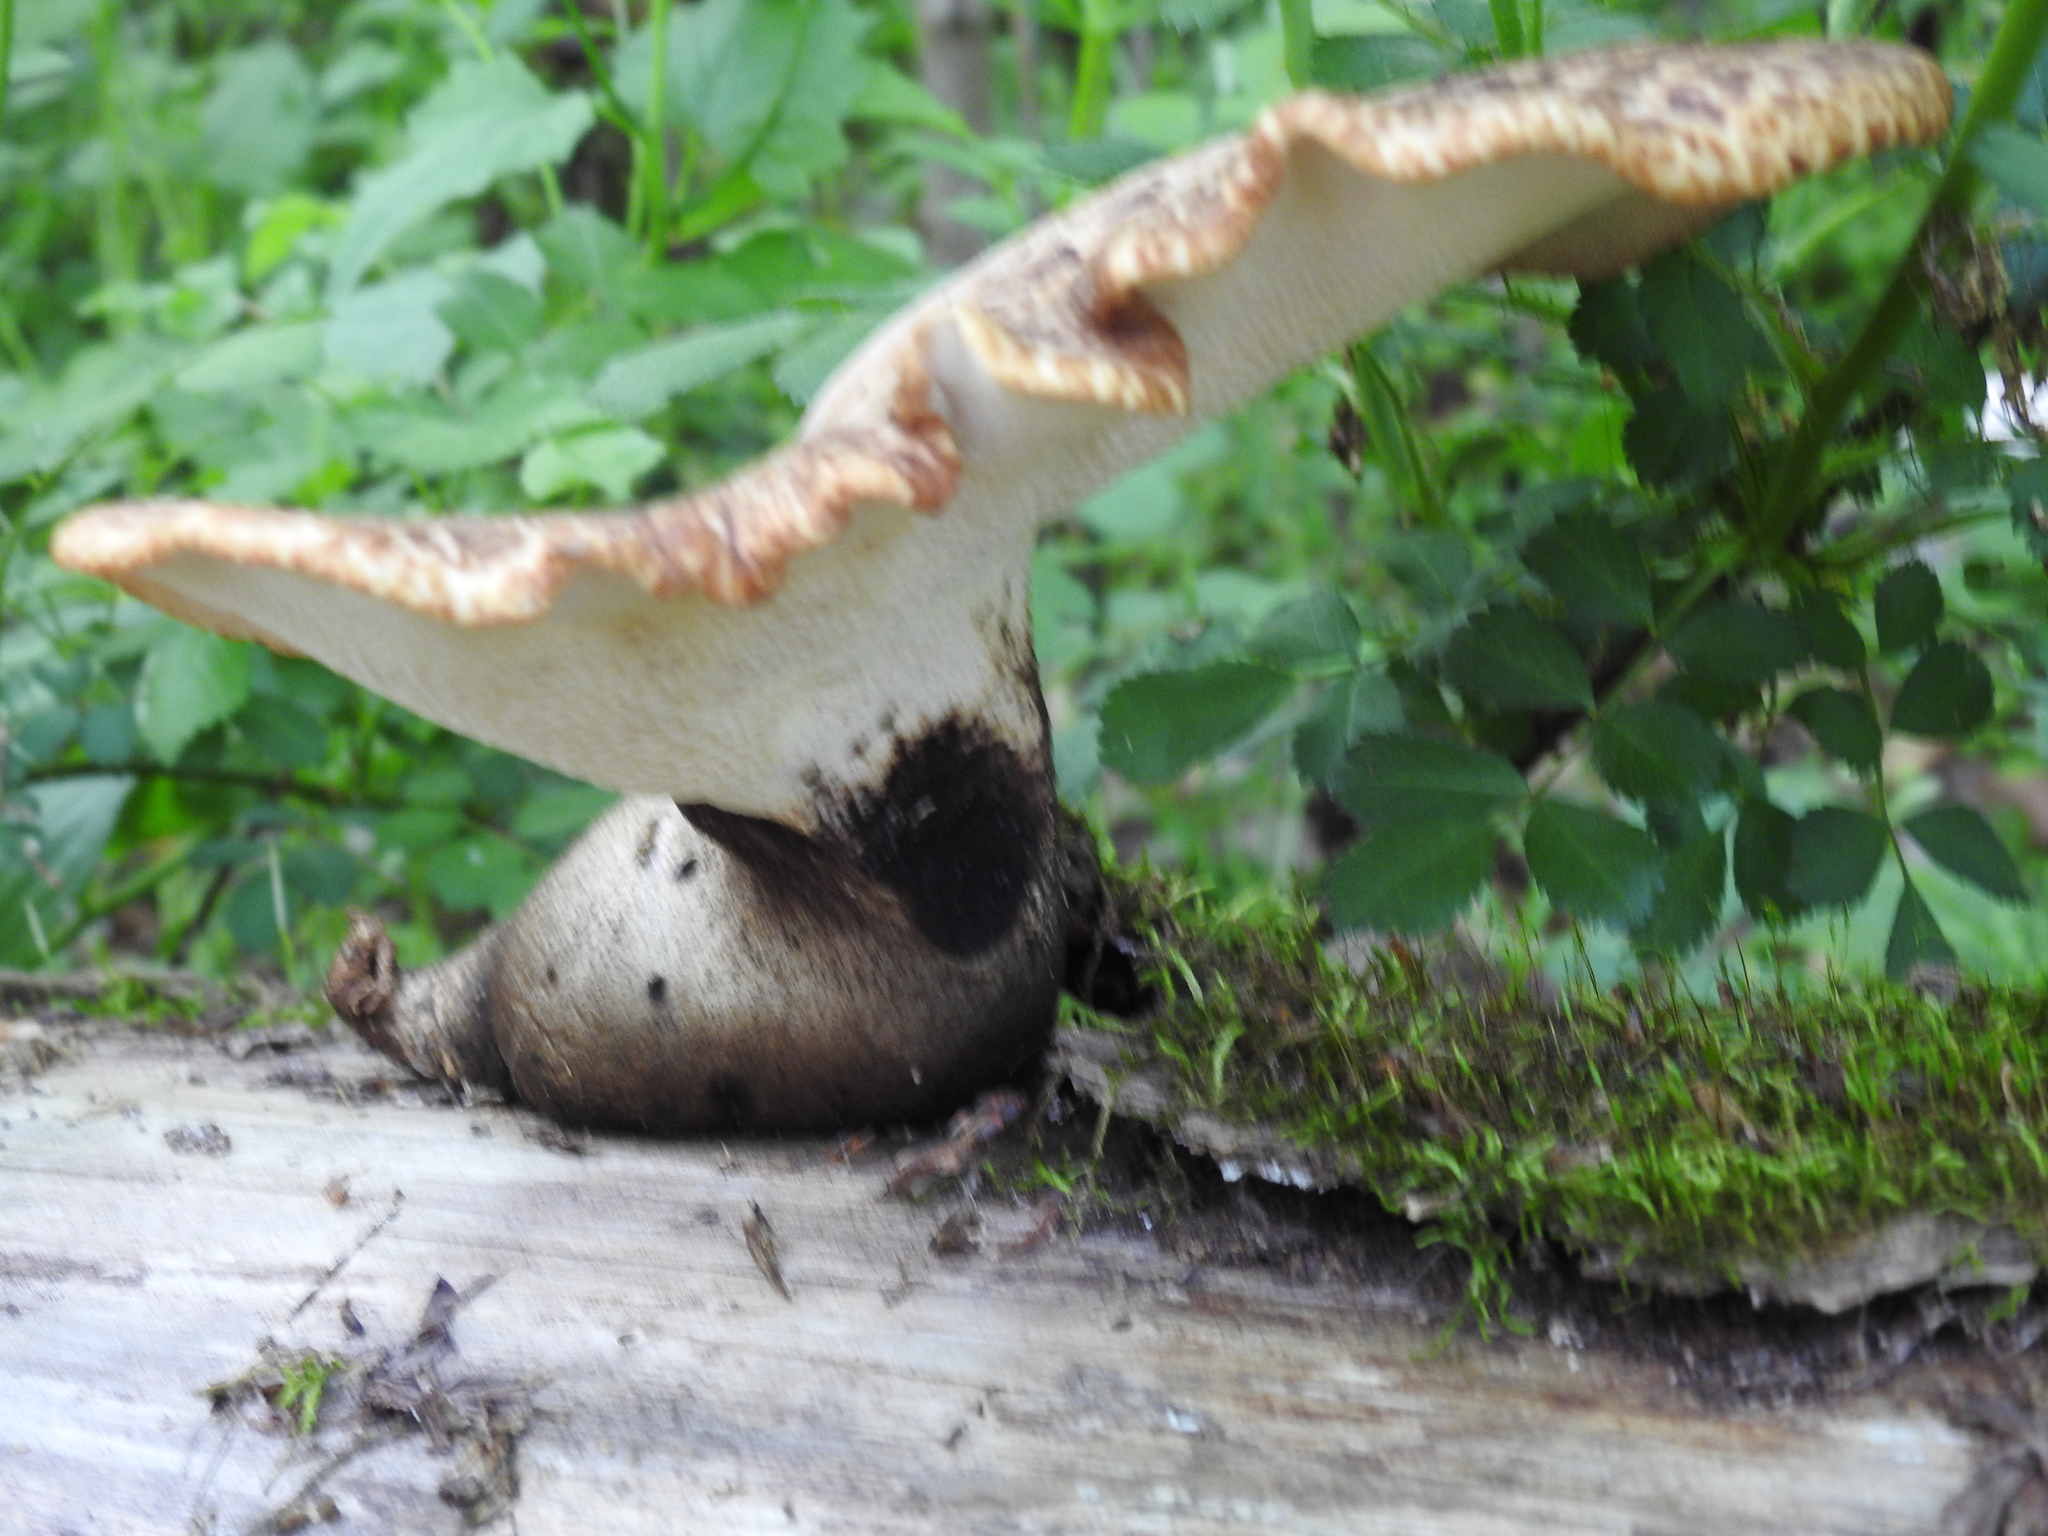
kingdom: Fungi
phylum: Basidiomycota
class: Agaricomycetes
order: Polyporales
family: Polyporaceae
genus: Cerioporus
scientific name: Cerioporus squamosus
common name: Dryad's saddle
